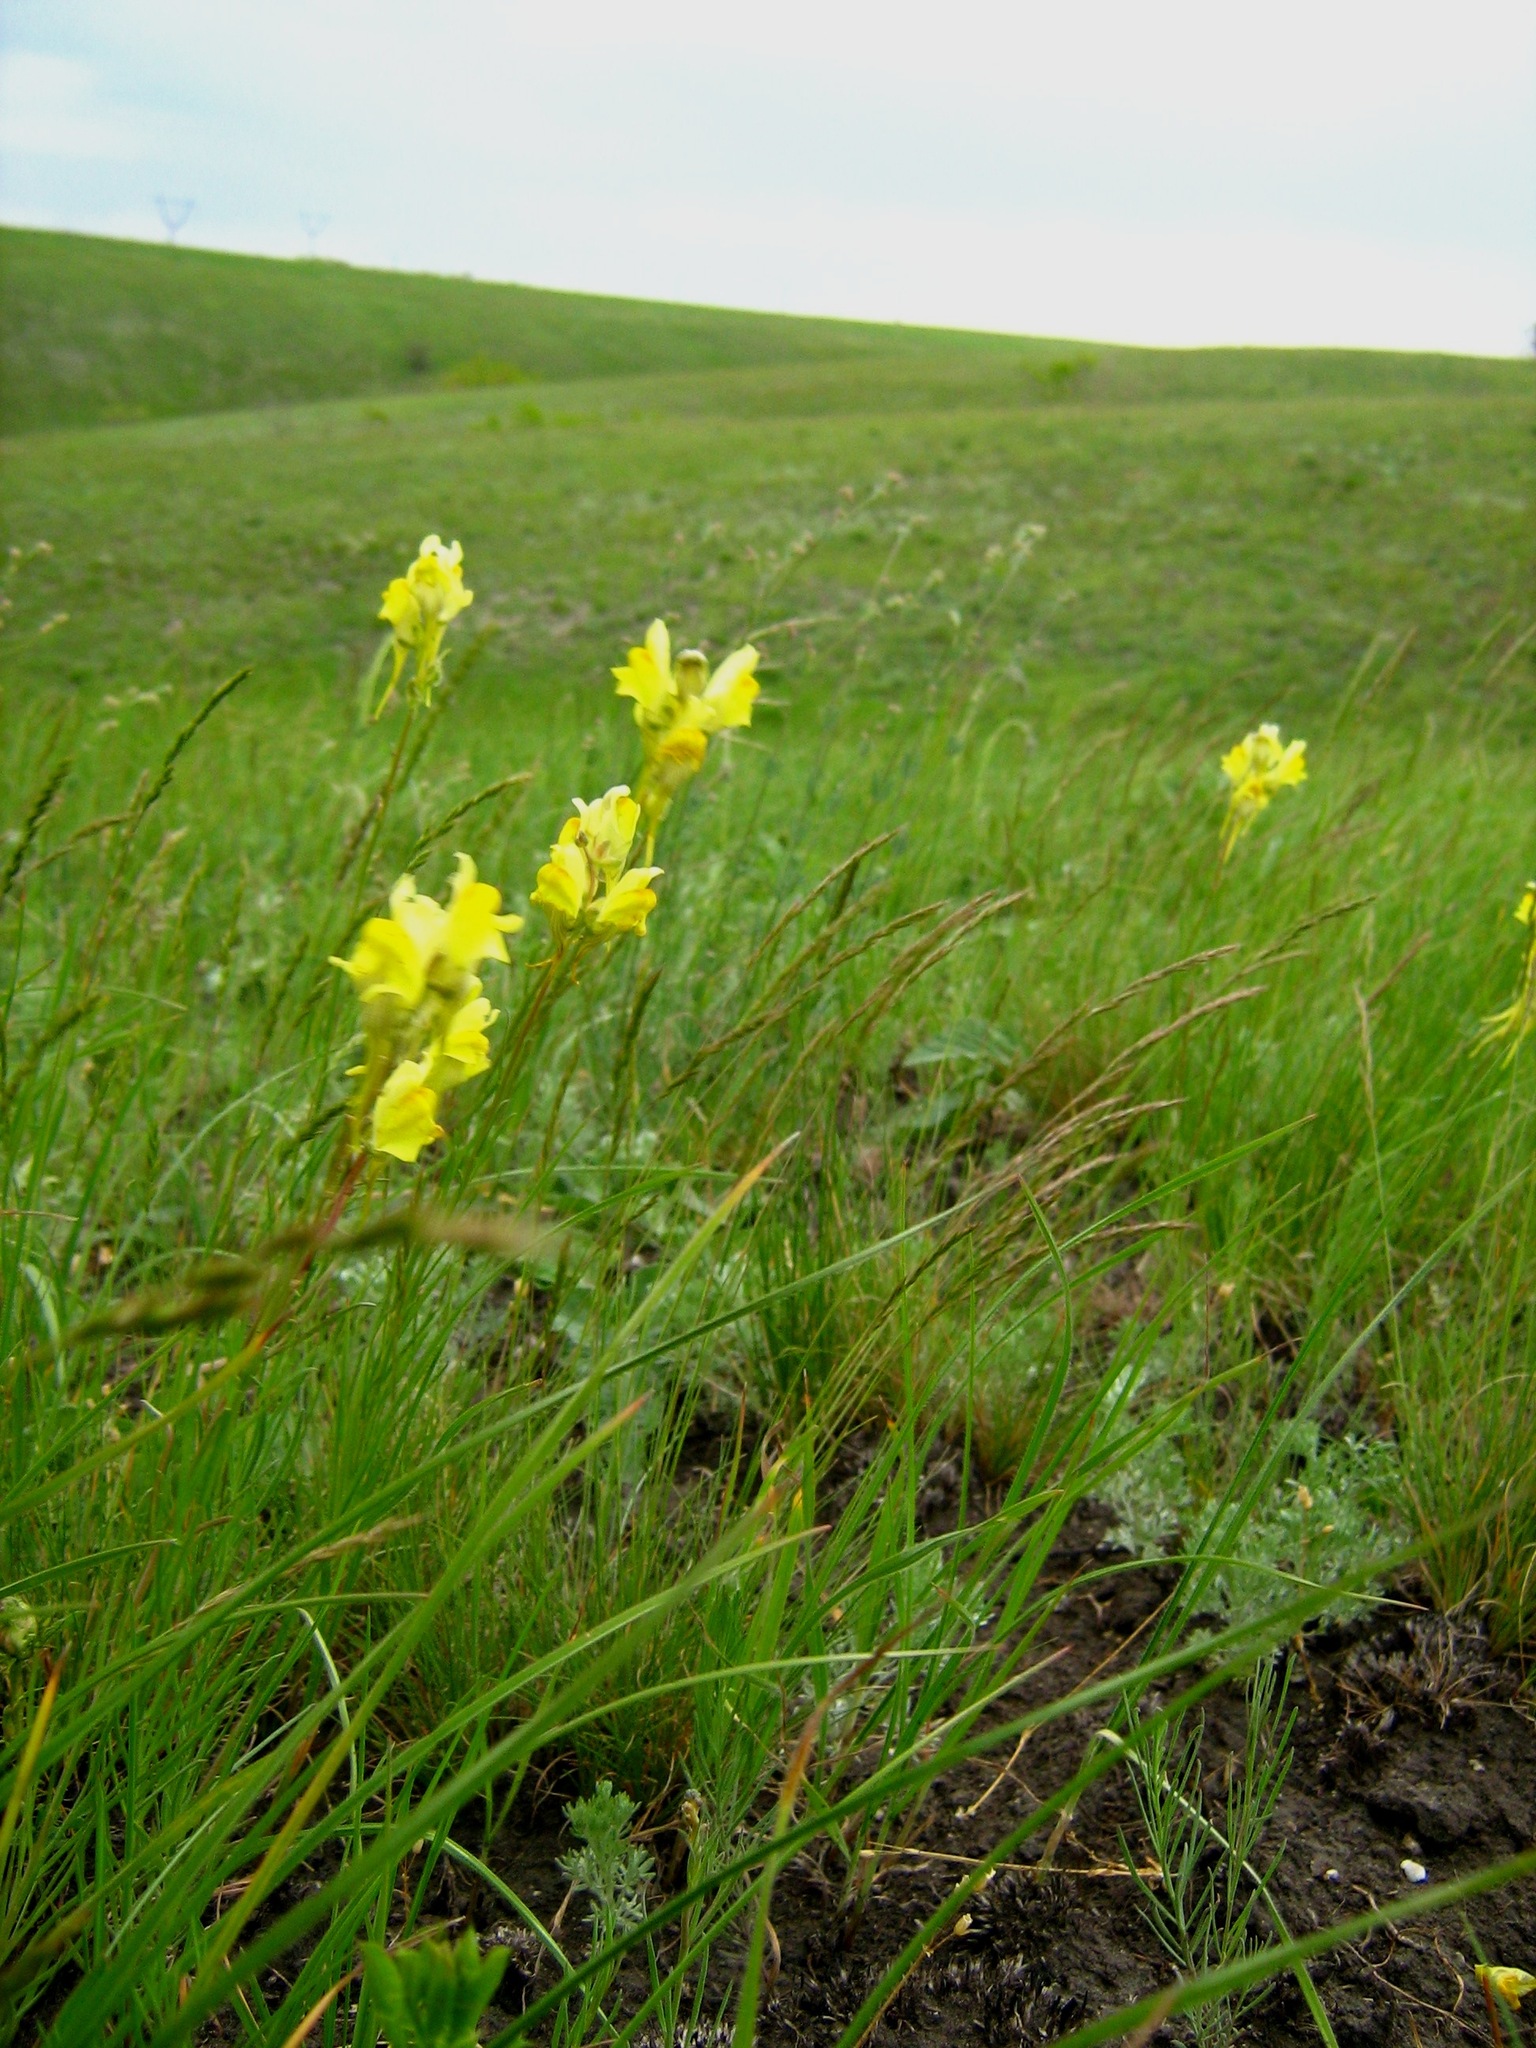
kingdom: Plantae
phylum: Tracheophyta
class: Magnoliopsida
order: Lamiales
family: Plantaginaceae
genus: Linaria
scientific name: Linaria vulgaris
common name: Butter and eggs
